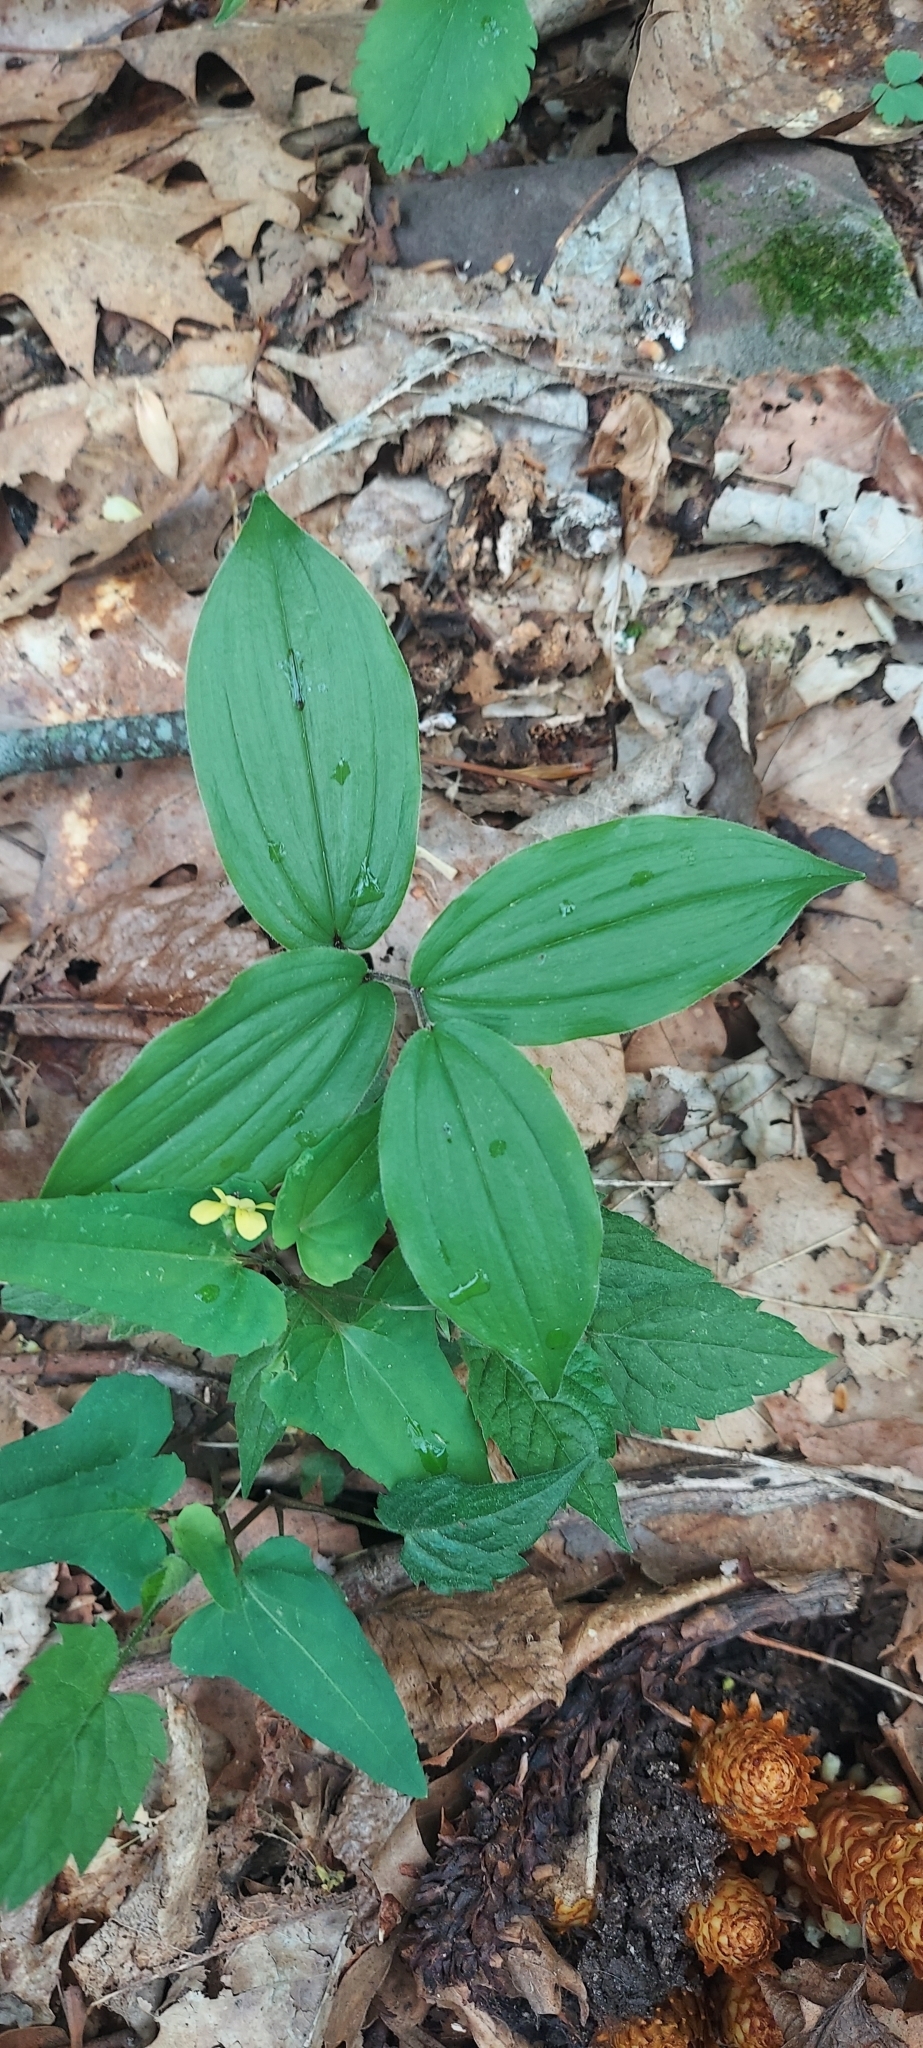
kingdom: Plantae
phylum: Tracheophyta
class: Liliopsida
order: Asparagales
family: Asparagaceae
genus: Maianthemum
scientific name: Maianthemum racemosum
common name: False spikenard
